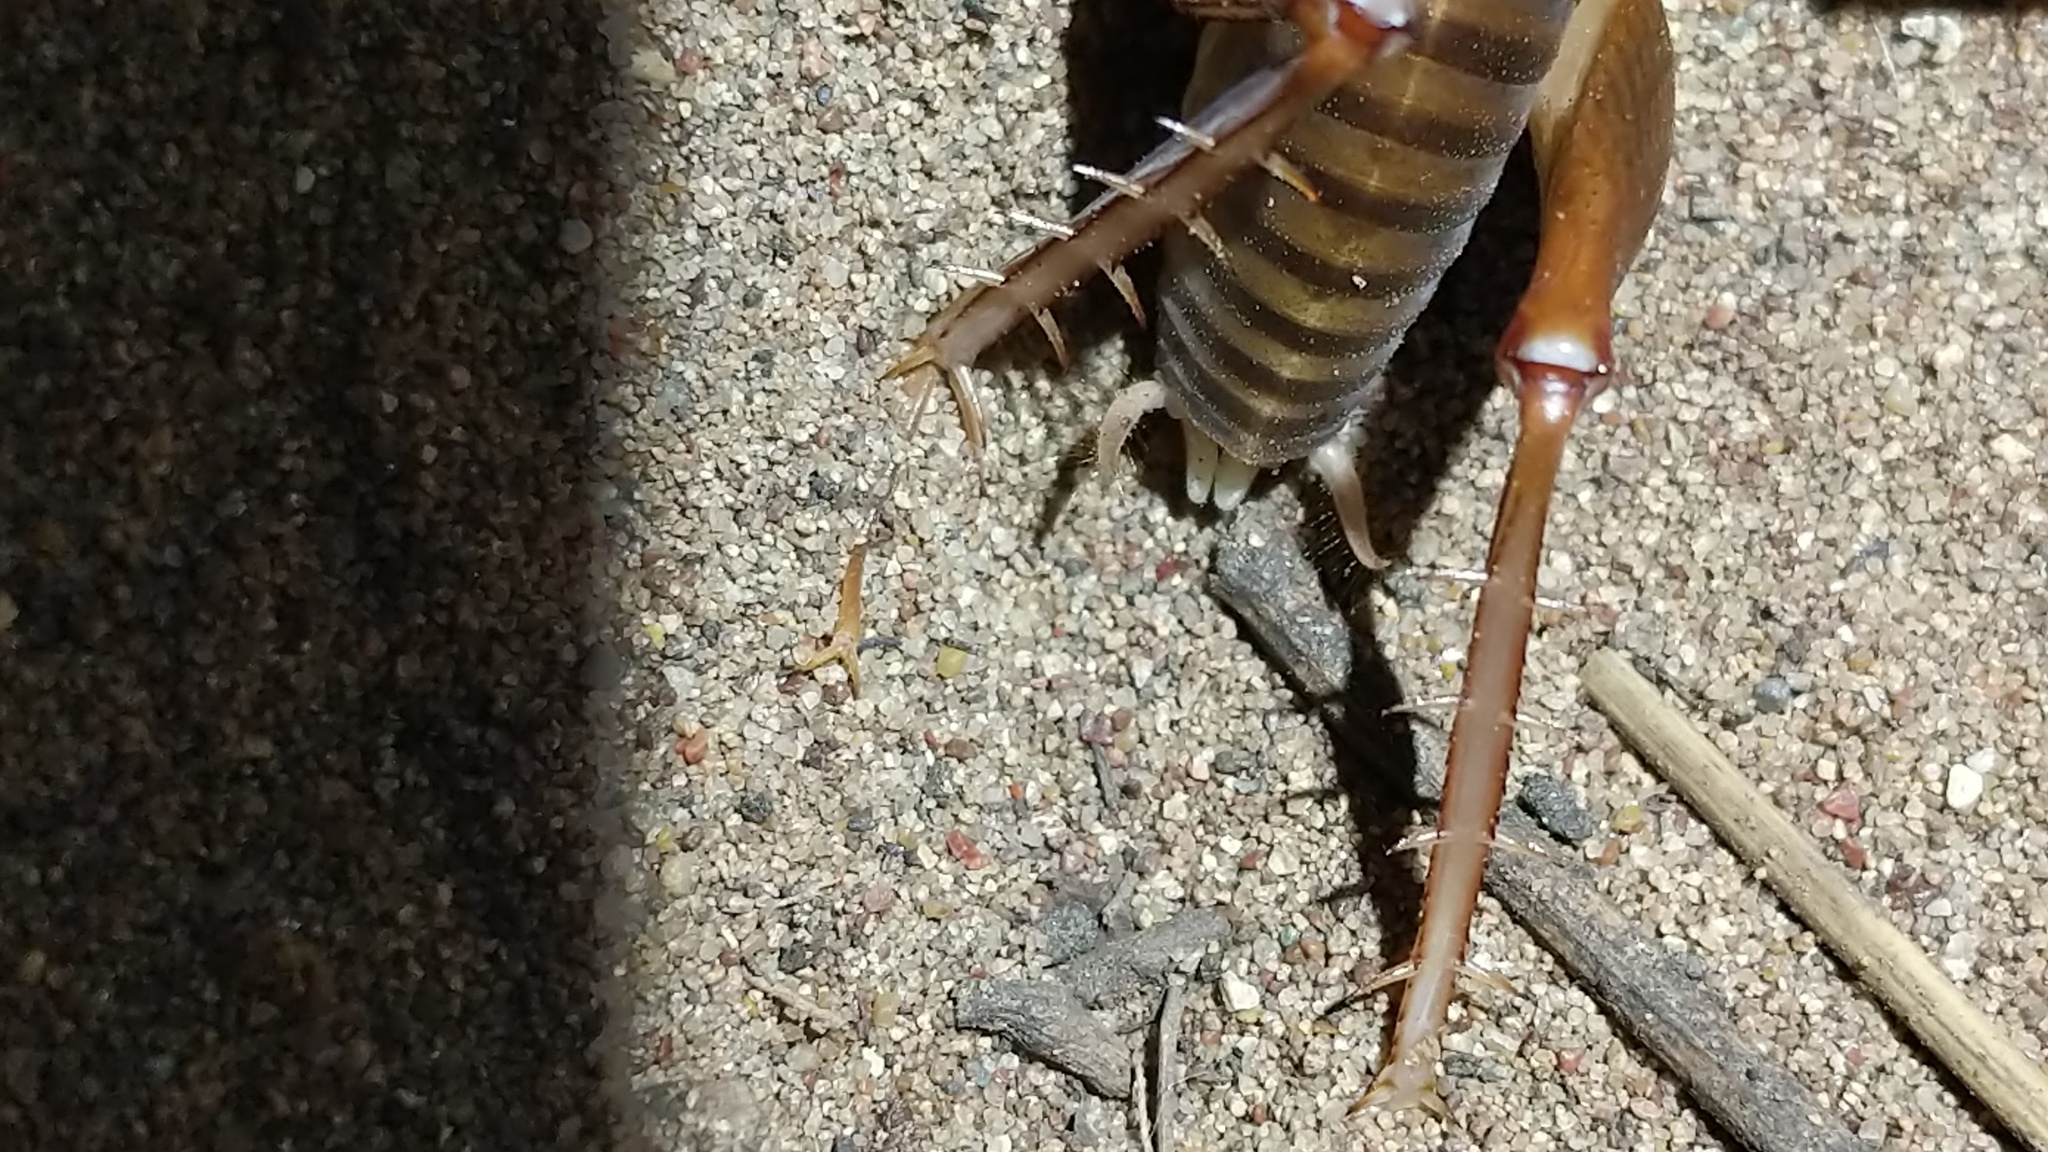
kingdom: Animalia
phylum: Arthropoda
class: Insecta
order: Orthoptera
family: Rhaphidophoridae
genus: Ceuthophilus
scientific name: Ceuthophilus californianus
